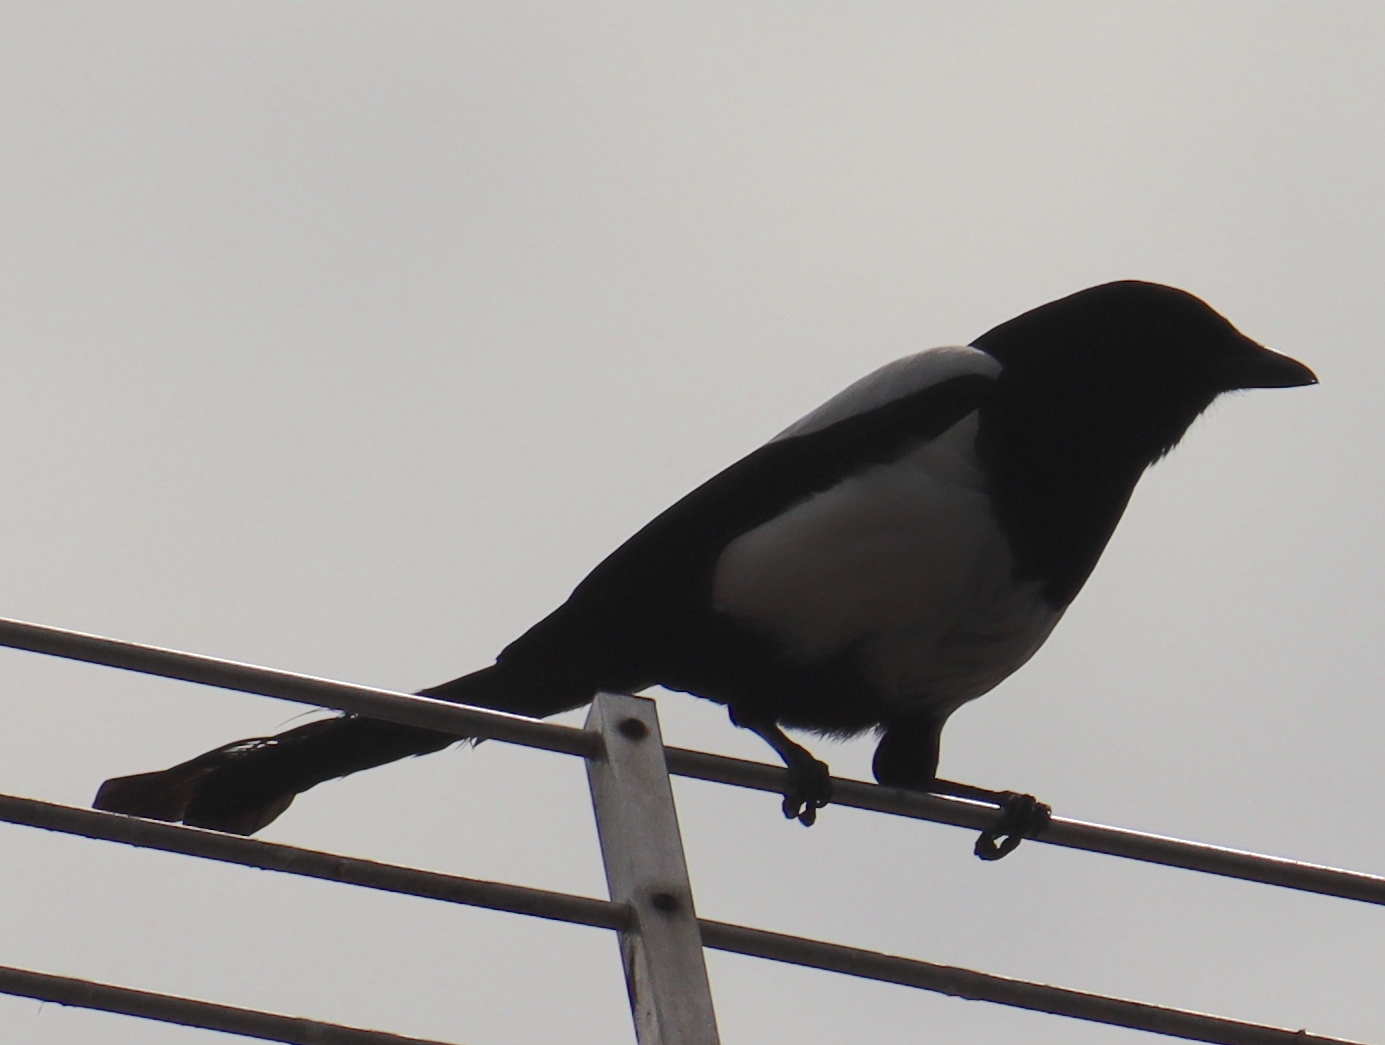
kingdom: Animalia
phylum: Chordata
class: Aves
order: Passeriformes
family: Corvidae
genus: Pica
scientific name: Pica pica
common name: Eurasian magpie
